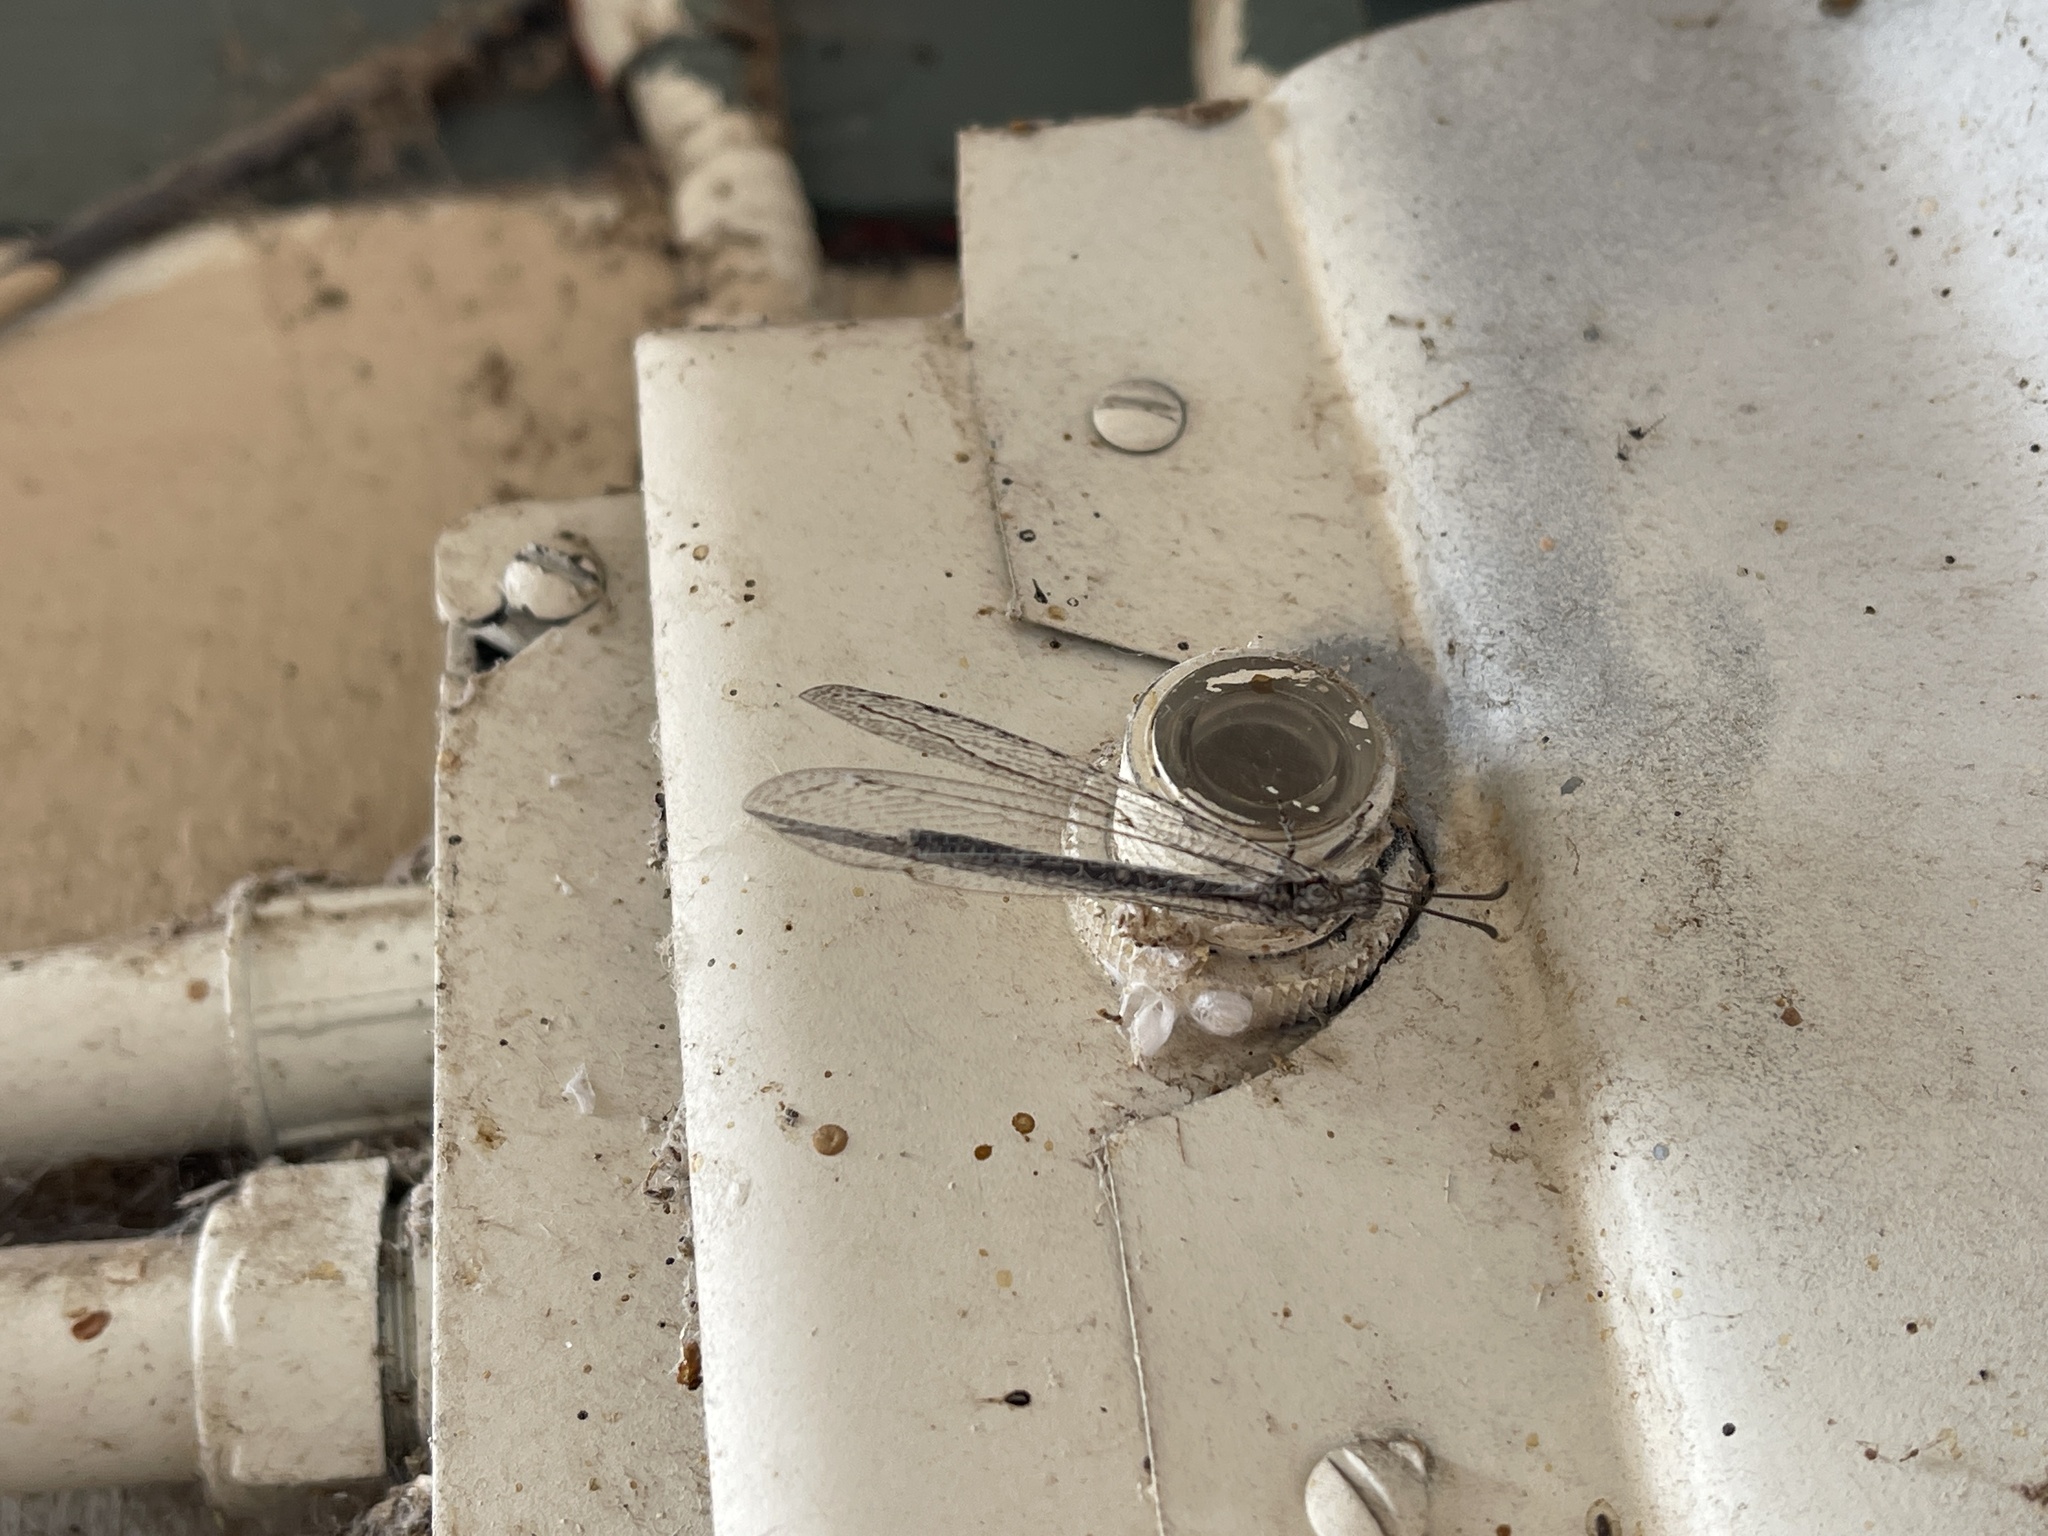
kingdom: Animalia
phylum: Arthropoda
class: Insecta
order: Neuroptera
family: Myrmeleontidae
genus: Euptilon
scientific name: Euptilon sinuatum
